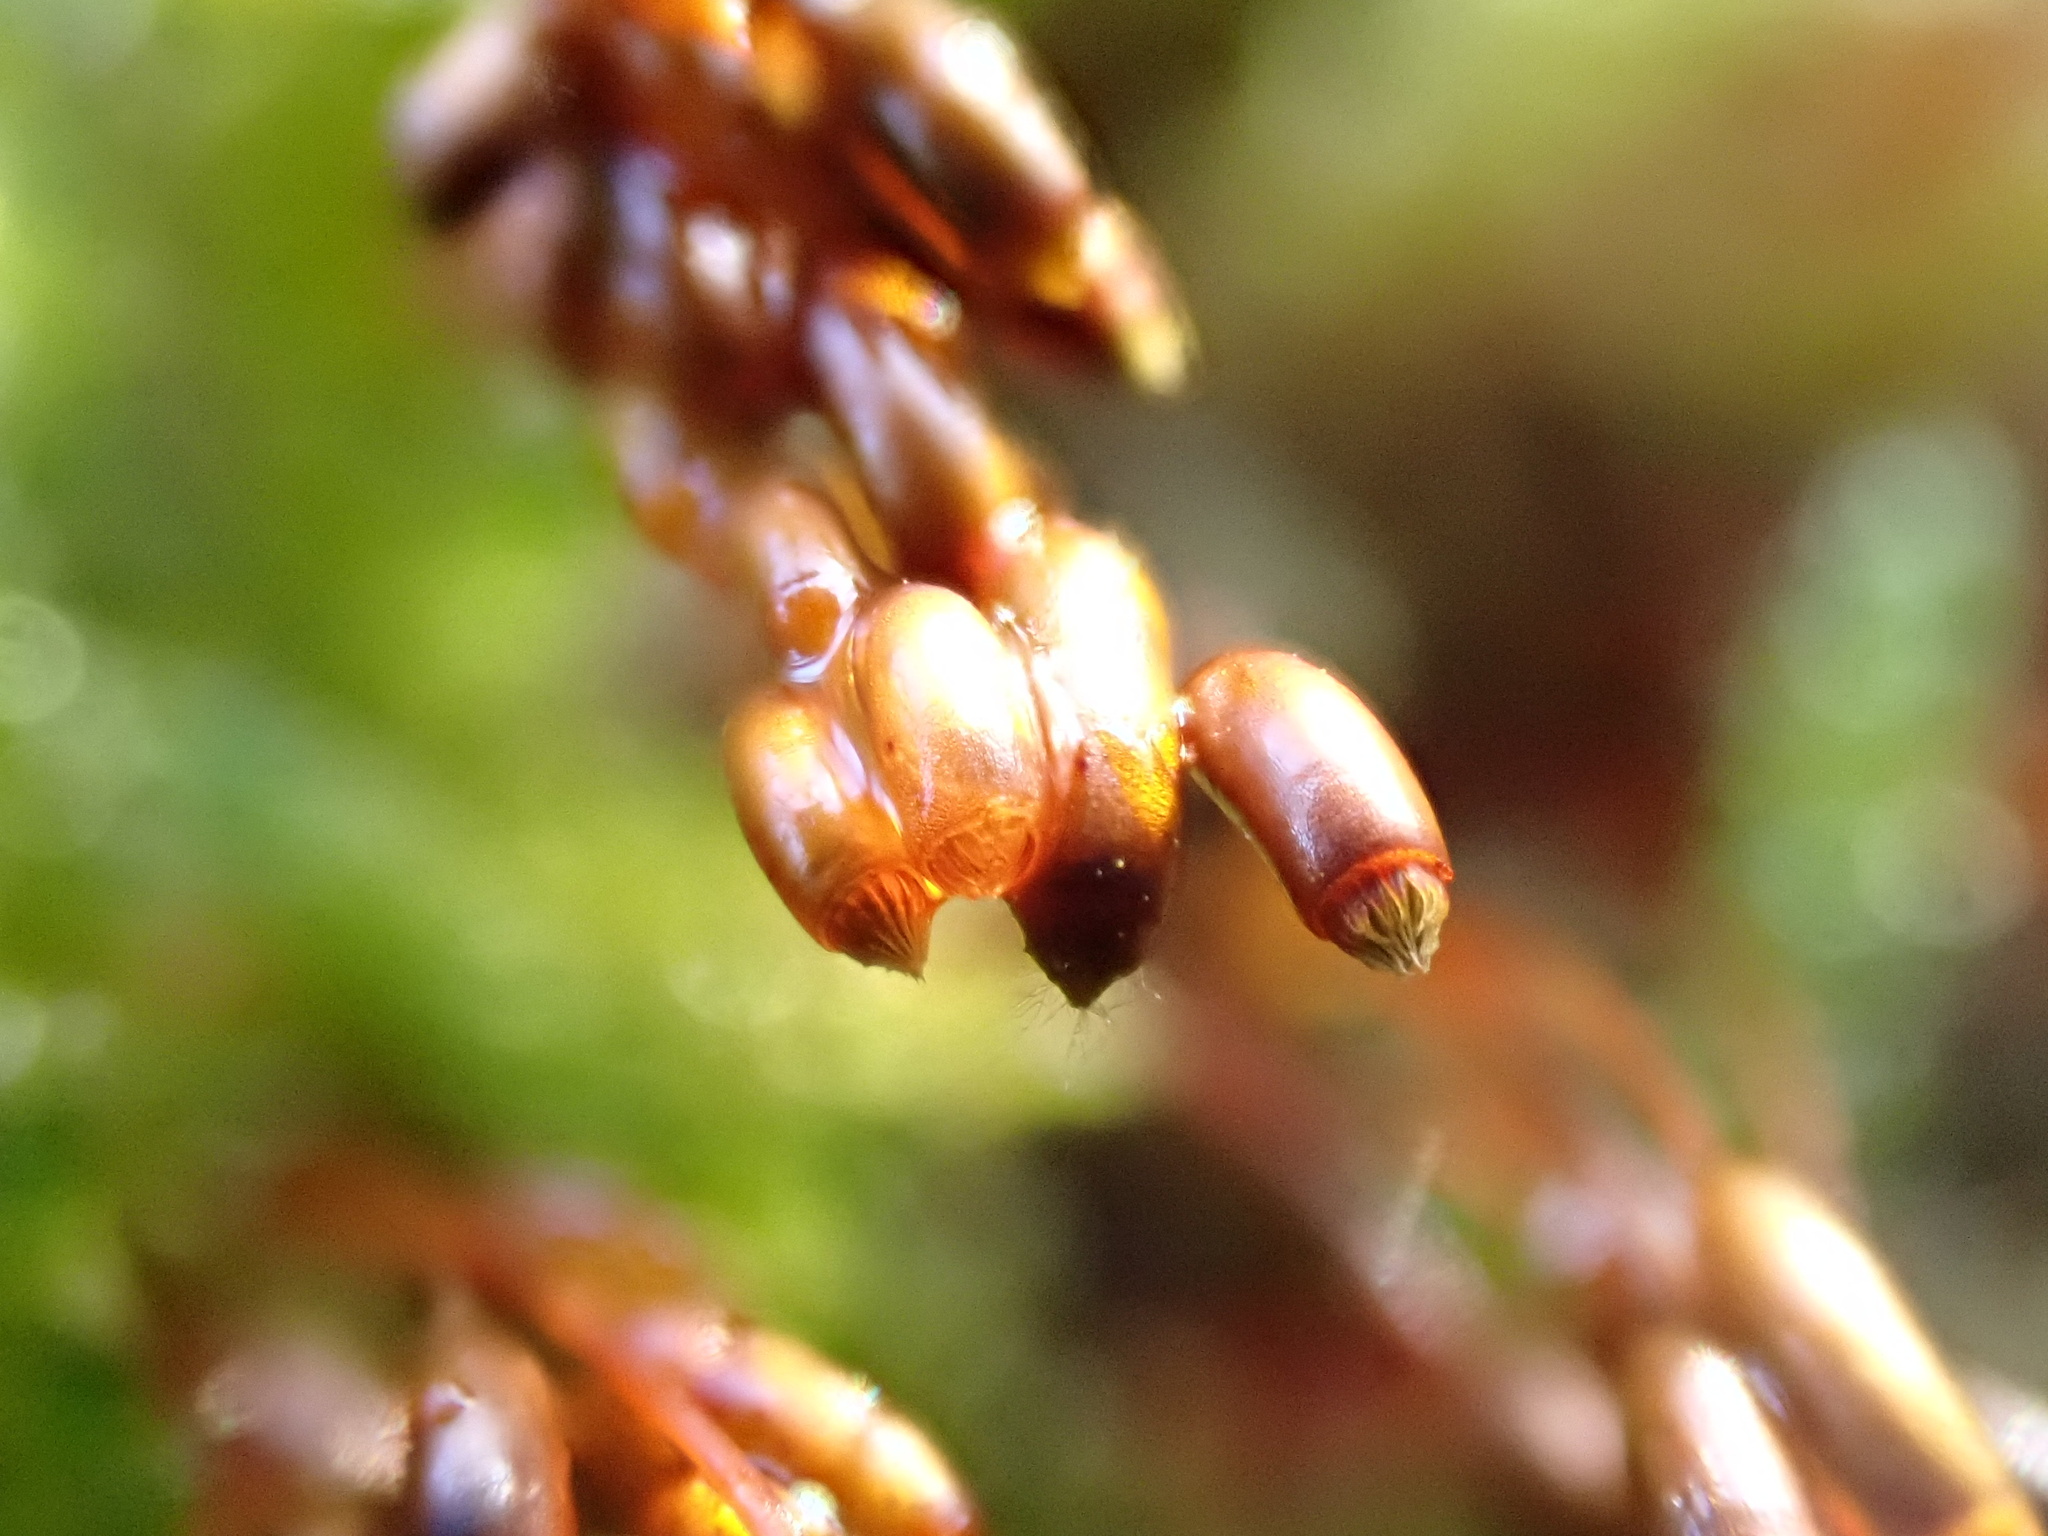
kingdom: Plantae
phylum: Bryophyta
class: Bryopsida
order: Hypnales
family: Hypnaceae
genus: Hypnum
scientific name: Hypnum cupressiforme
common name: Cypress-leaved plait-moss
